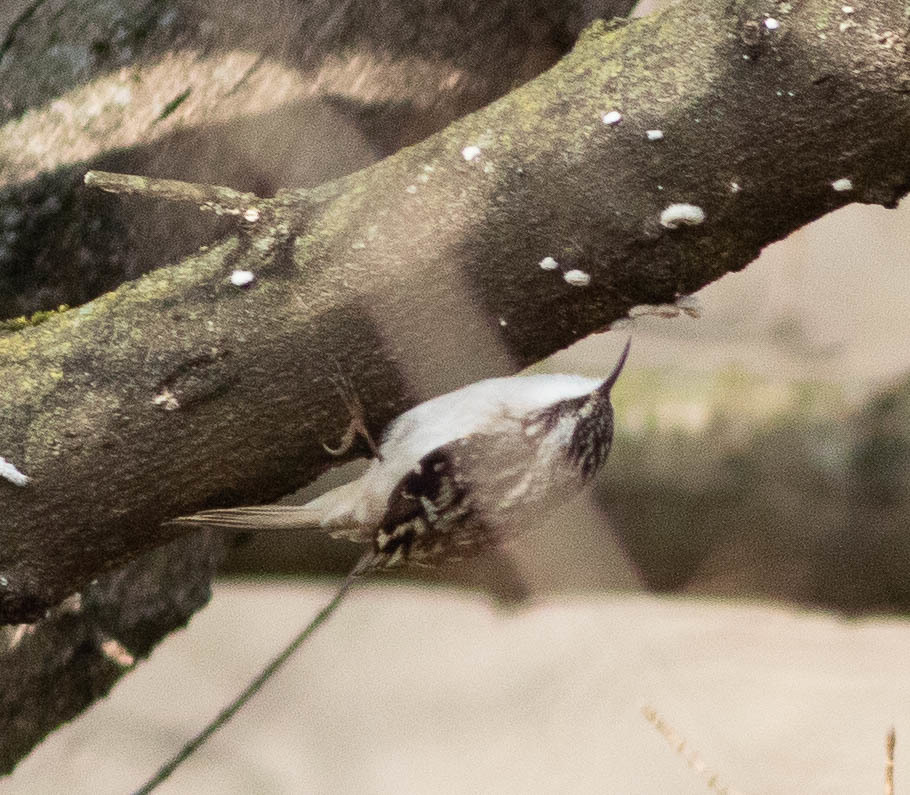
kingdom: Animalia
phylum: Chordata
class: Aves
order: Passeriformes
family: Certhiidae
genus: Certhia
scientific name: Certhia americana
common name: Brown creeper
